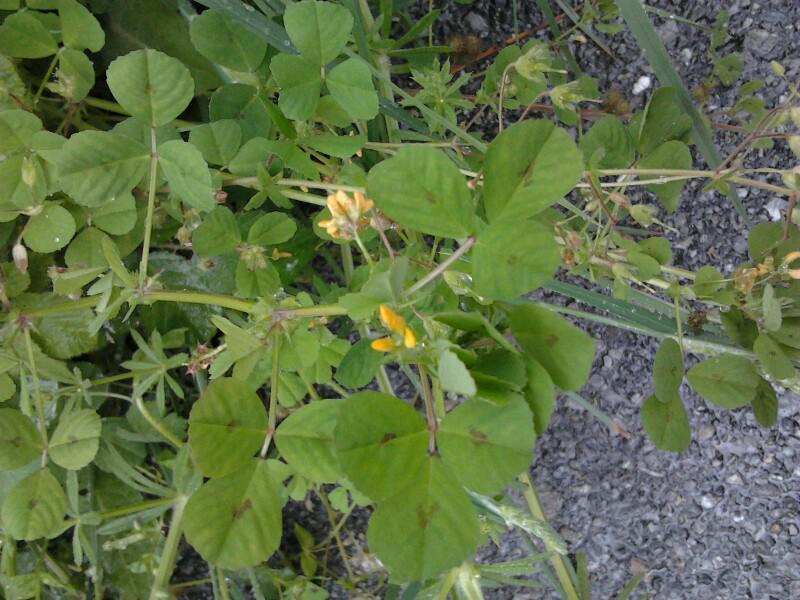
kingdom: Plantae
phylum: Tracheophyta
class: Magnoliopsida
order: Fabales
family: Fabaceae
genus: Medicago
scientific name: Medicago arabica
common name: Spotted medick
